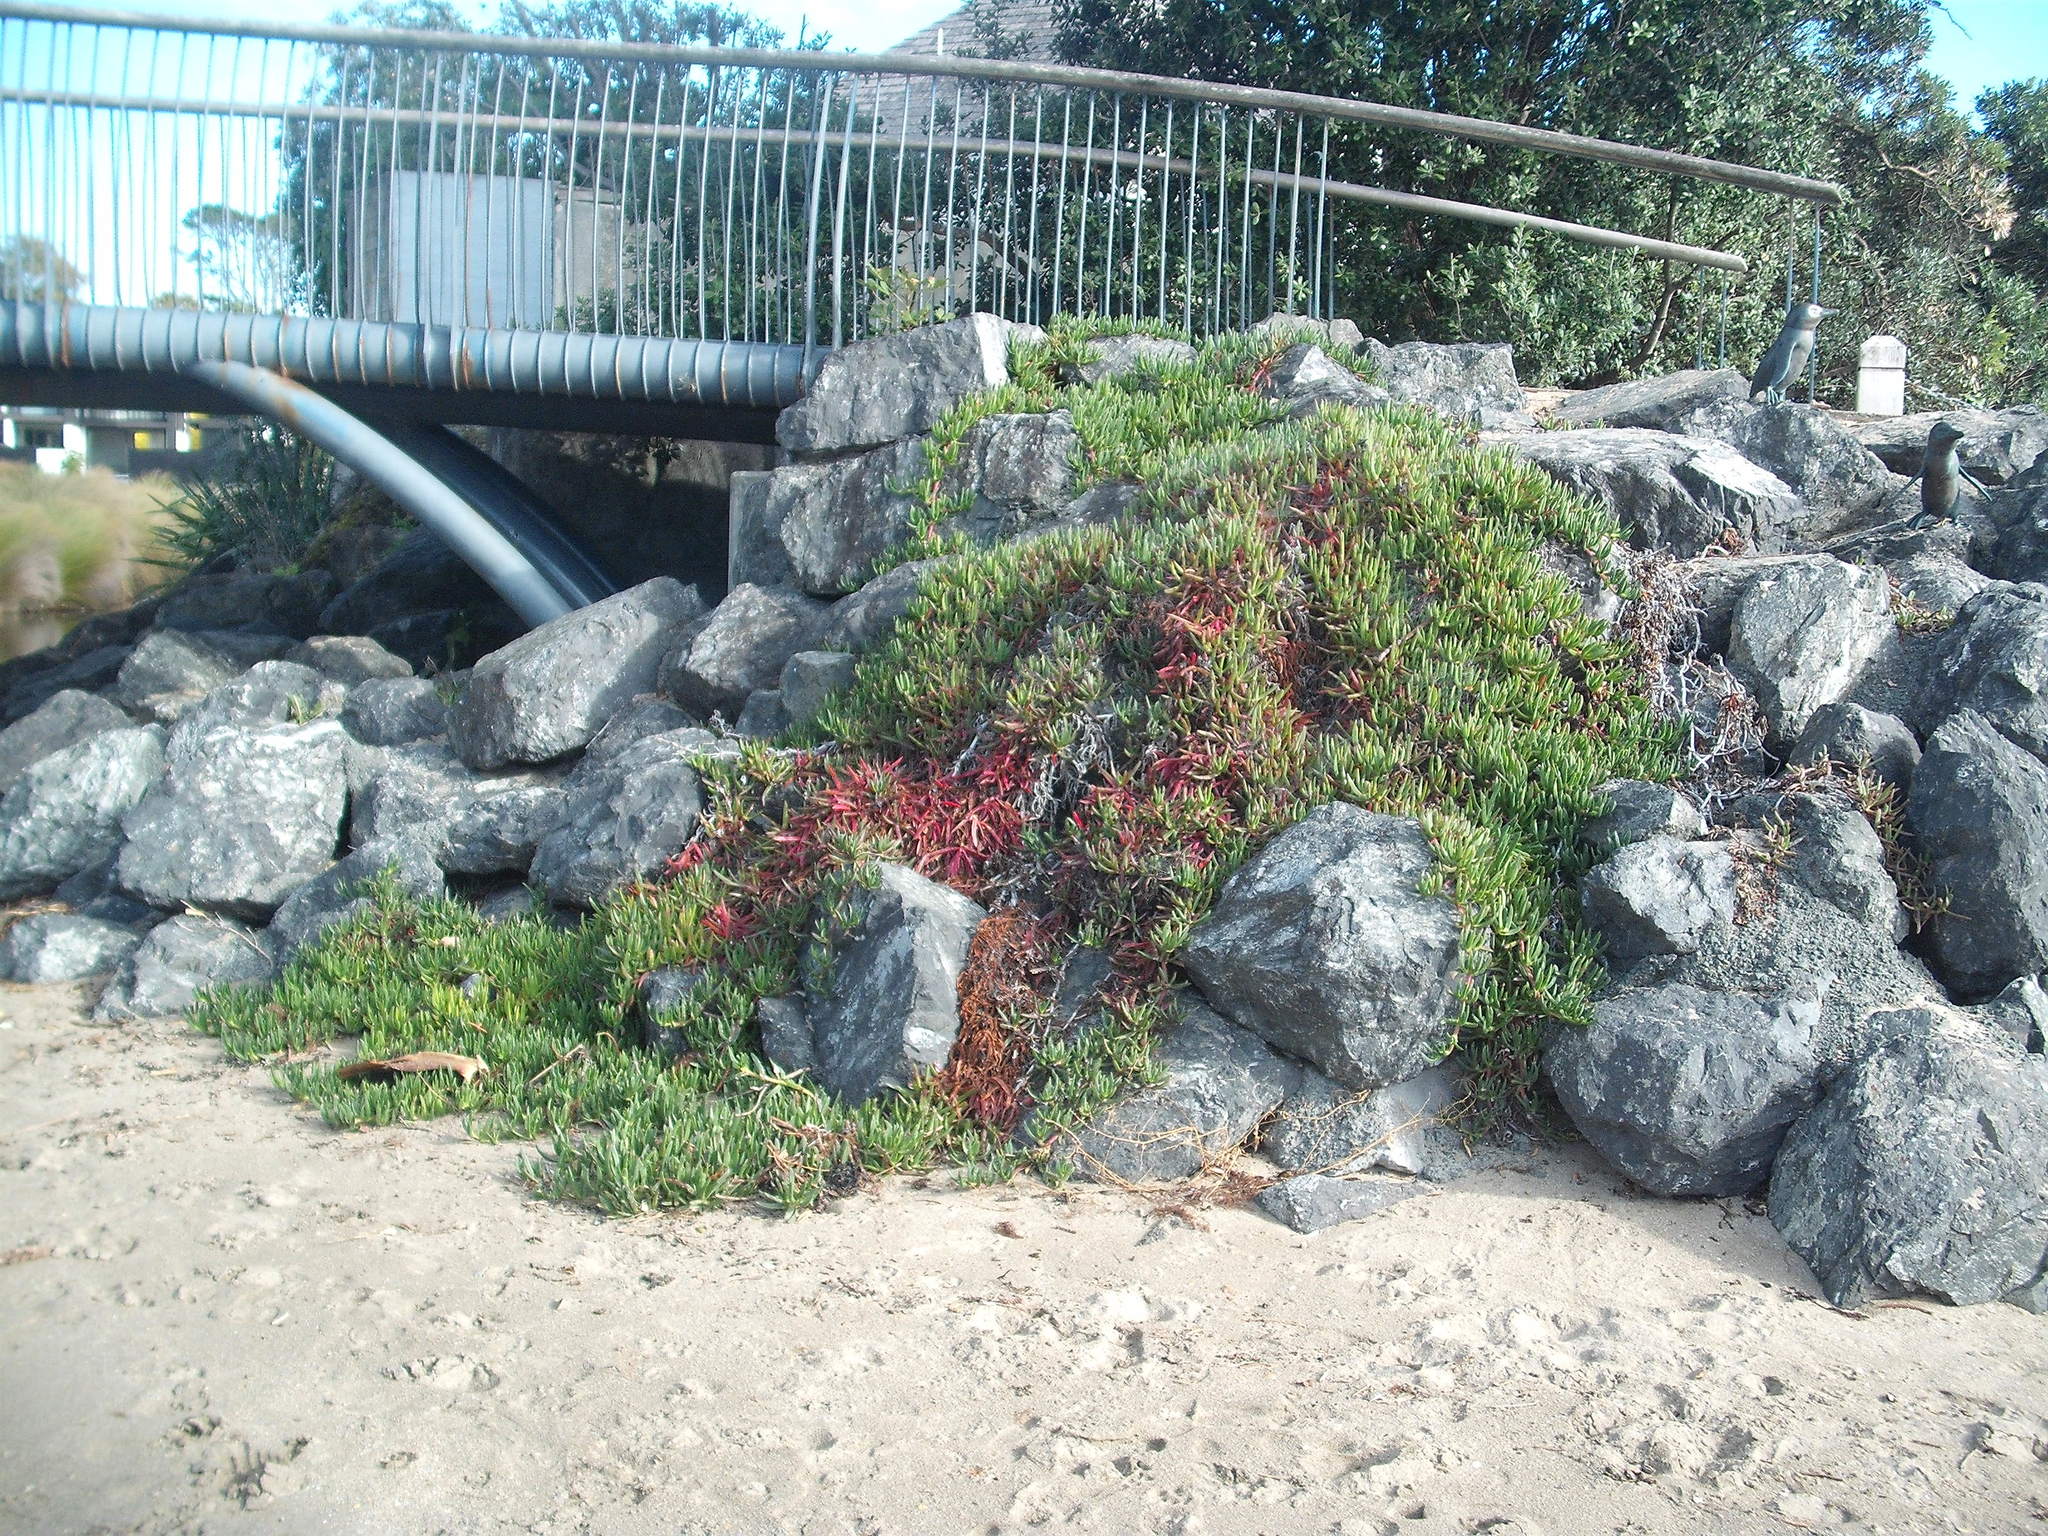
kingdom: Plantae
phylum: Tracheophyta
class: Magnoliopsida
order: Caryophyllales
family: Aizoaceae
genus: Carpobrotus
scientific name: Carpobrotus edulis
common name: Hottentot-fig
